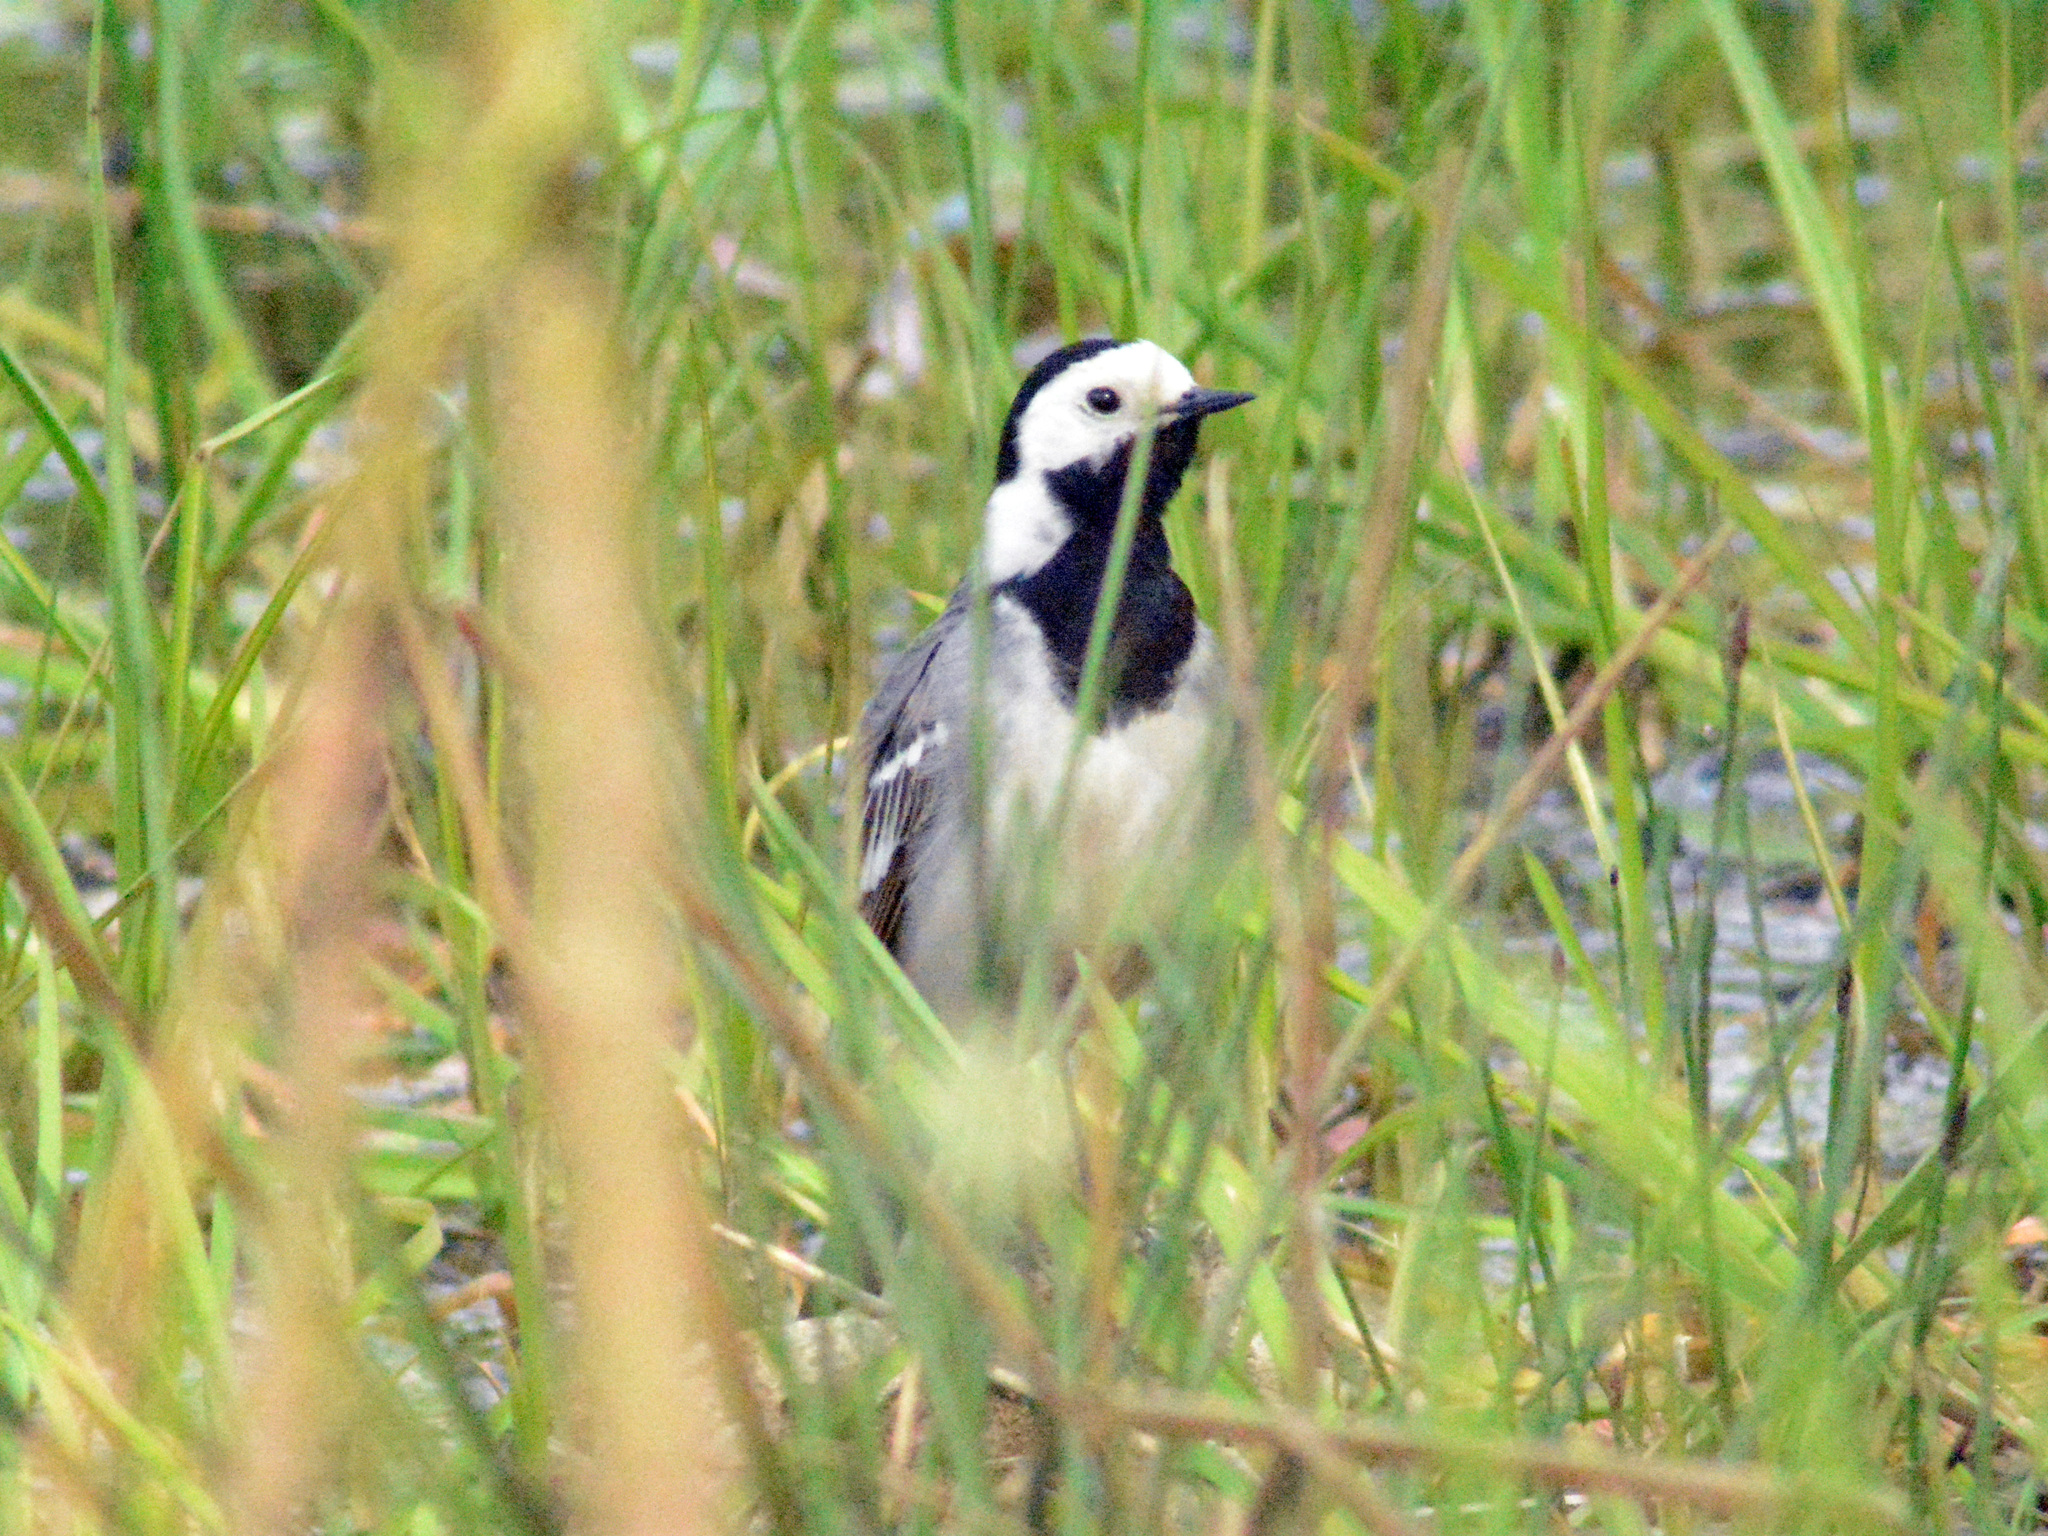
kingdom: Animalia
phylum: Chordata
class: Aves
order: Passeriformes
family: Motacillidae
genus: Motacilla
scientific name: Motacilla alba
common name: White wagtail
